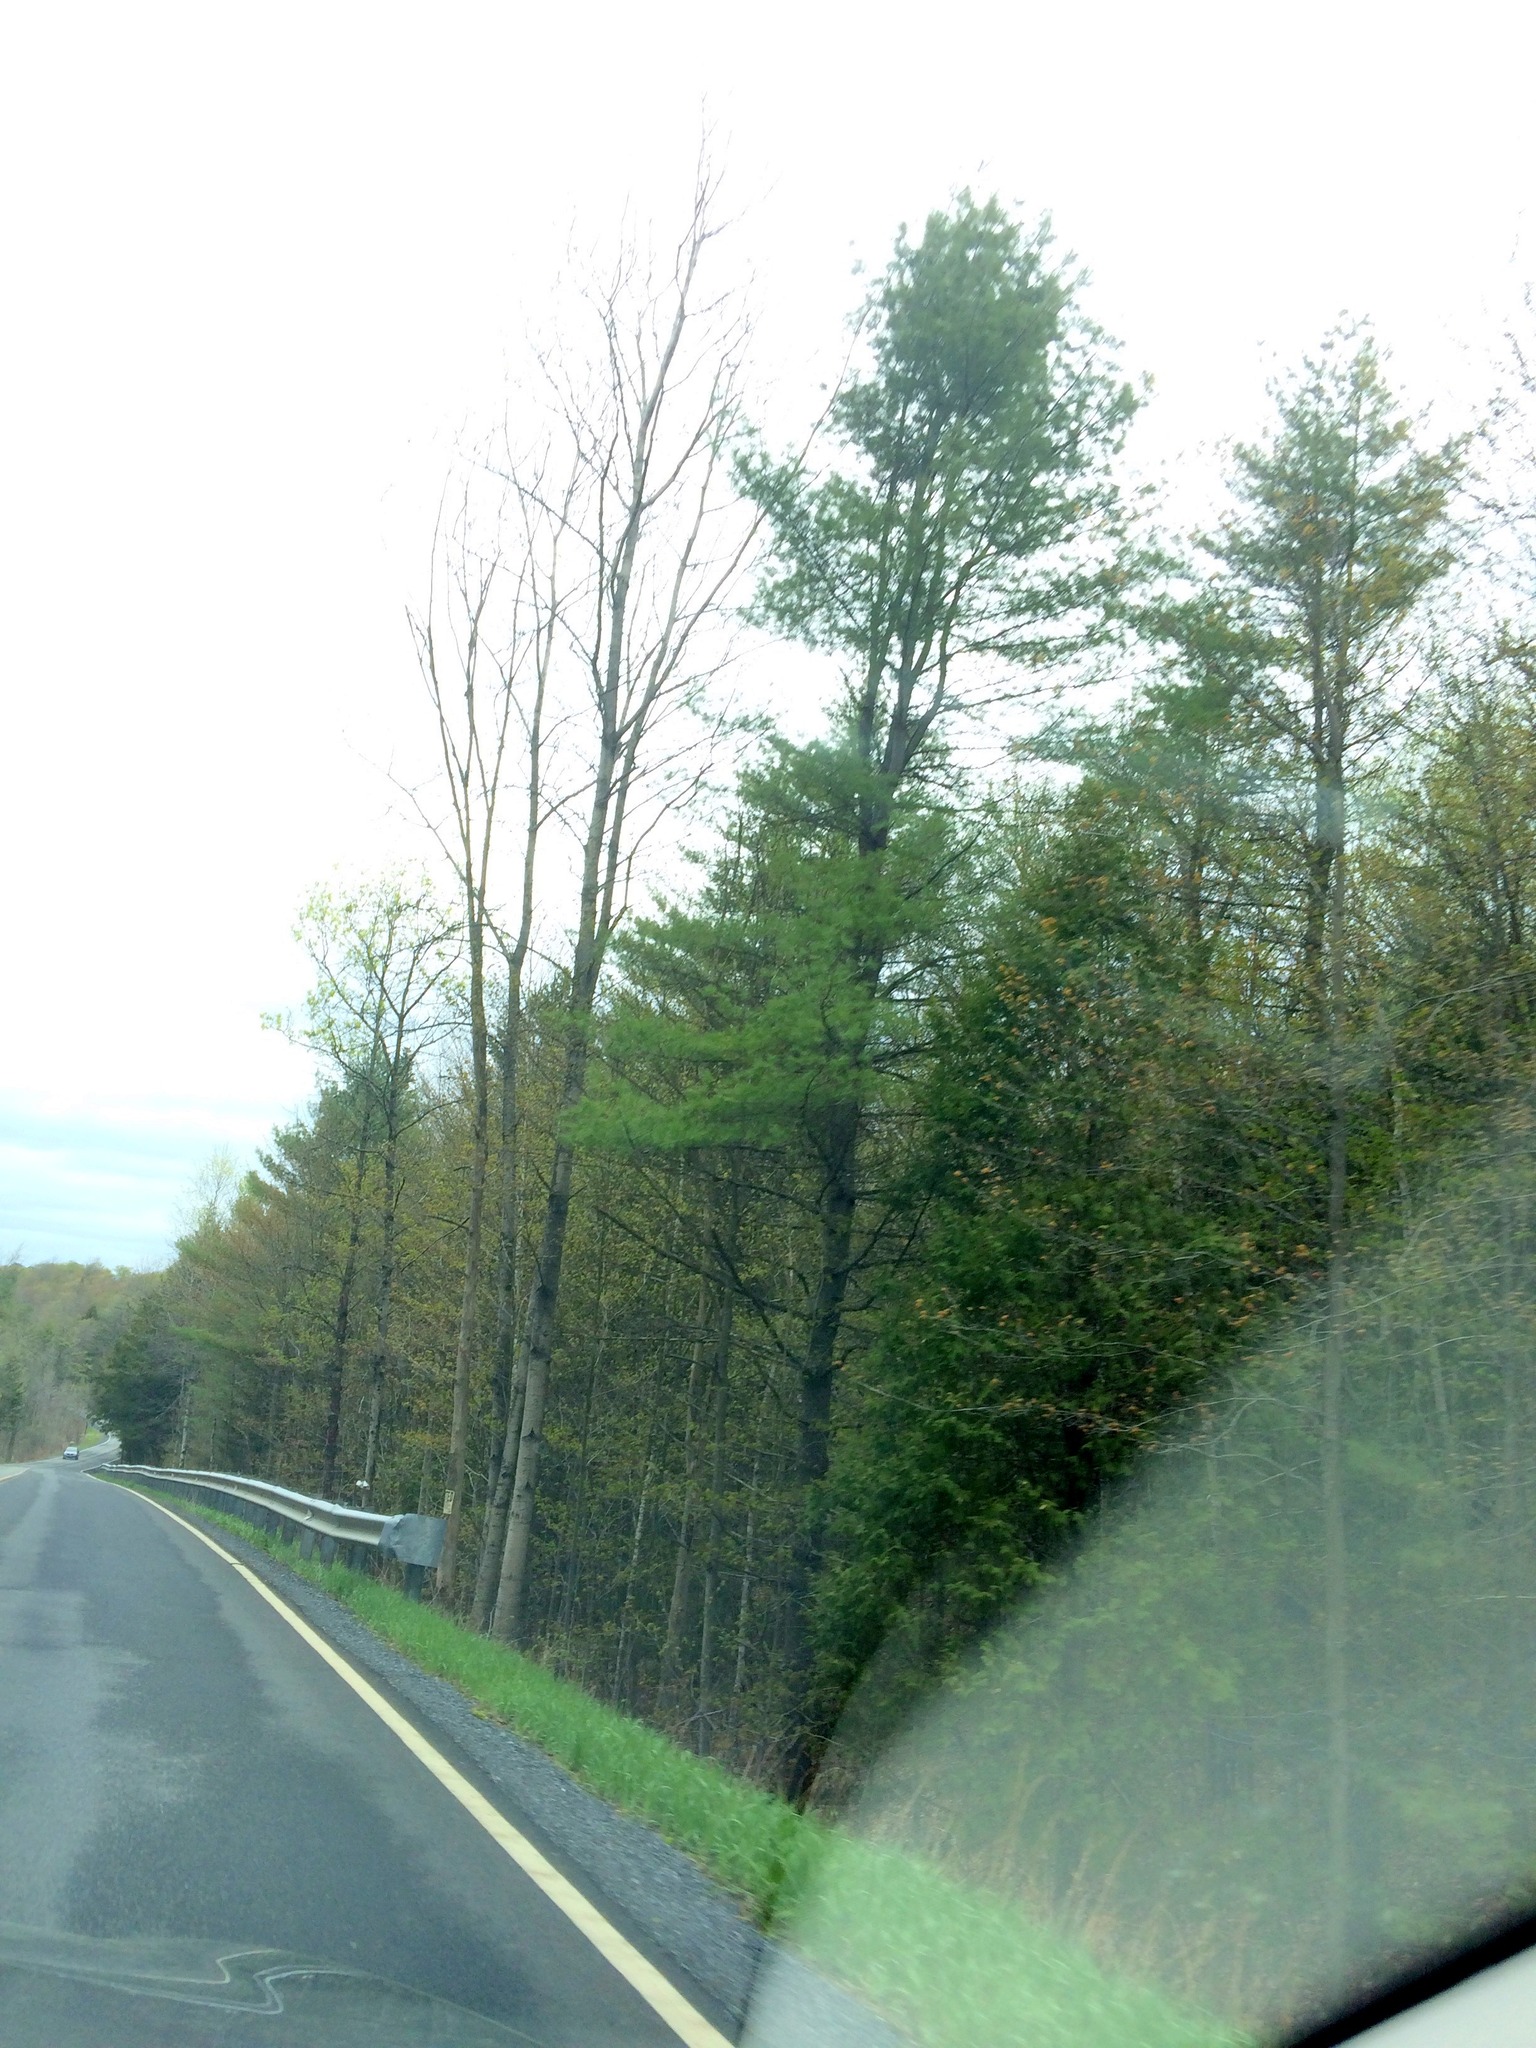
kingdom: Plantae
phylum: Tracheophyta
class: Pinopsida
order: Pinales
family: Pinaceae
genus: Pinus
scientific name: Pinus strobus
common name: Weymouth pine
